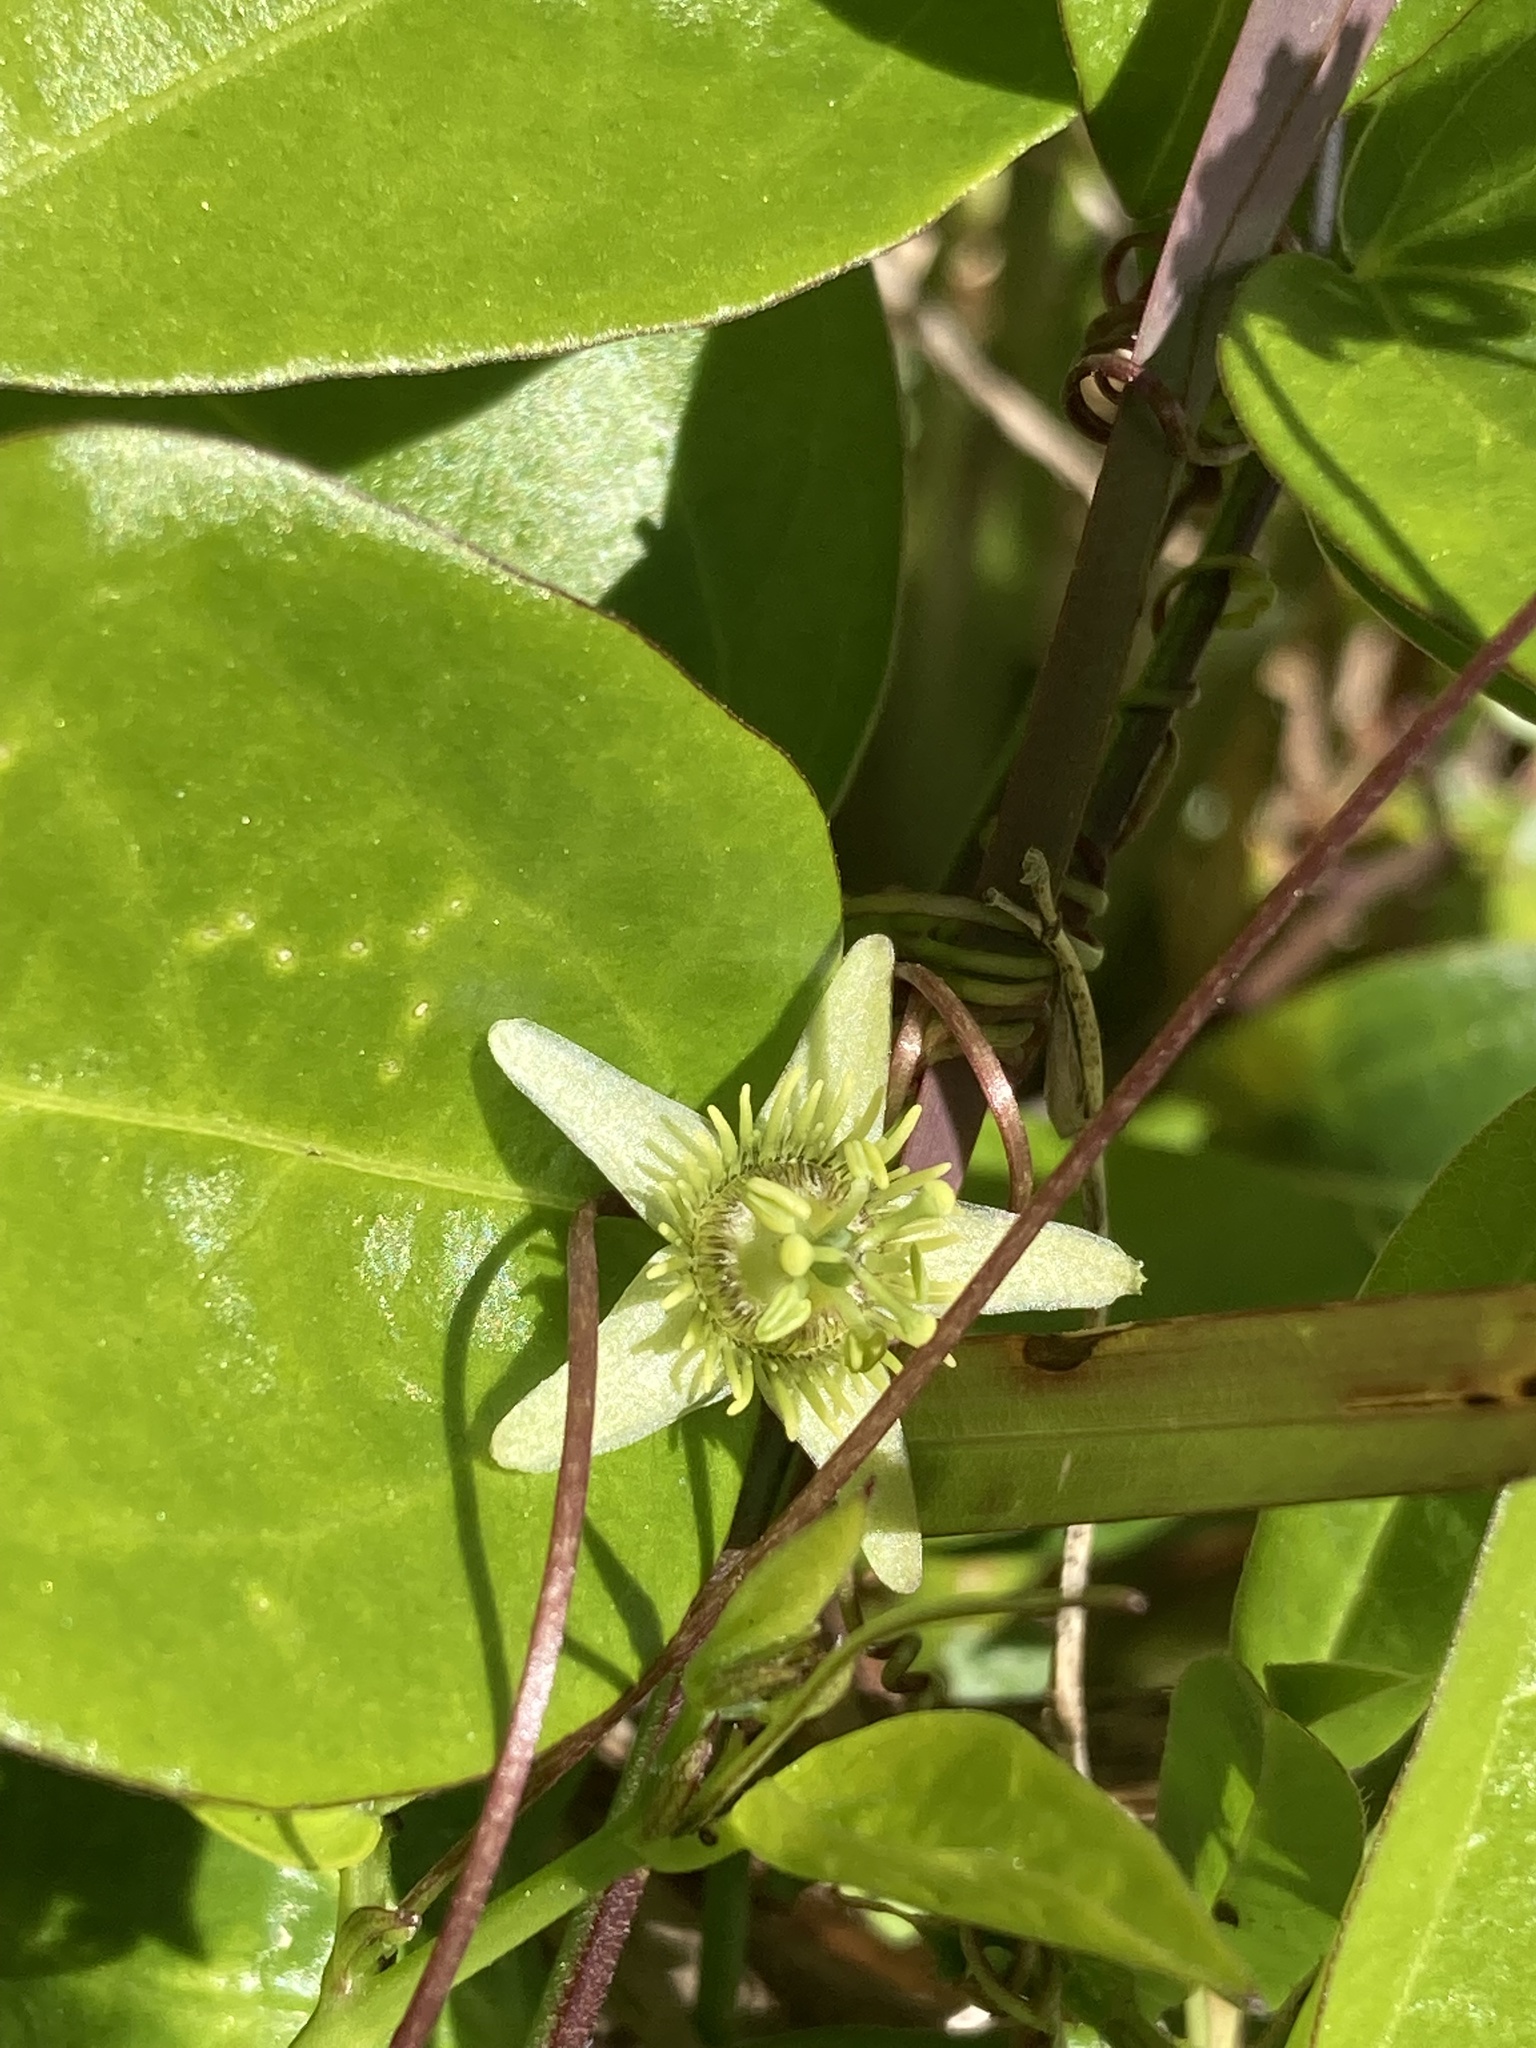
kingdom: Plantae
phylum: Tracheophyta
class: Magnoliopsida
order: Malpighiales
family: Passifloraceae
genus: Passiflora
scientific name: Passiflora pallida
